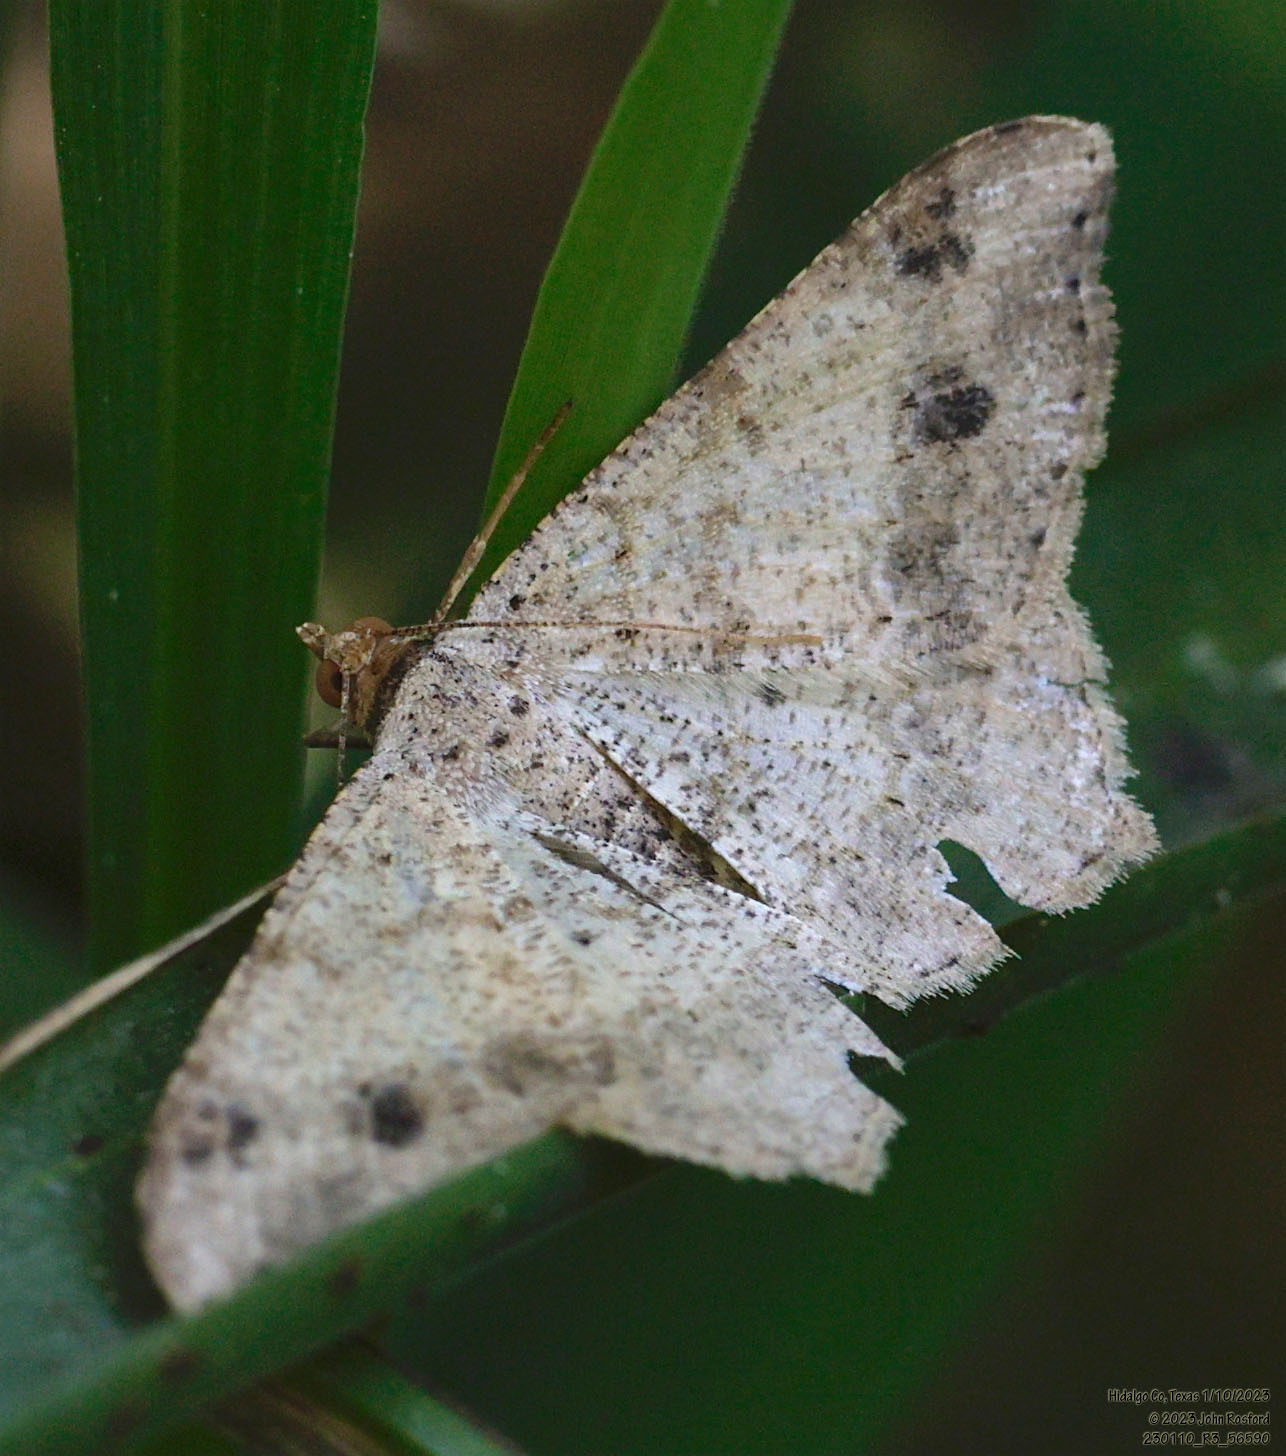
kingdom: Animalia
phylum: Arthropoda
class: Insecta
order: Lepidoptera
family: Geometridae
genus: Macaria
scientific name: Macaria abydata
